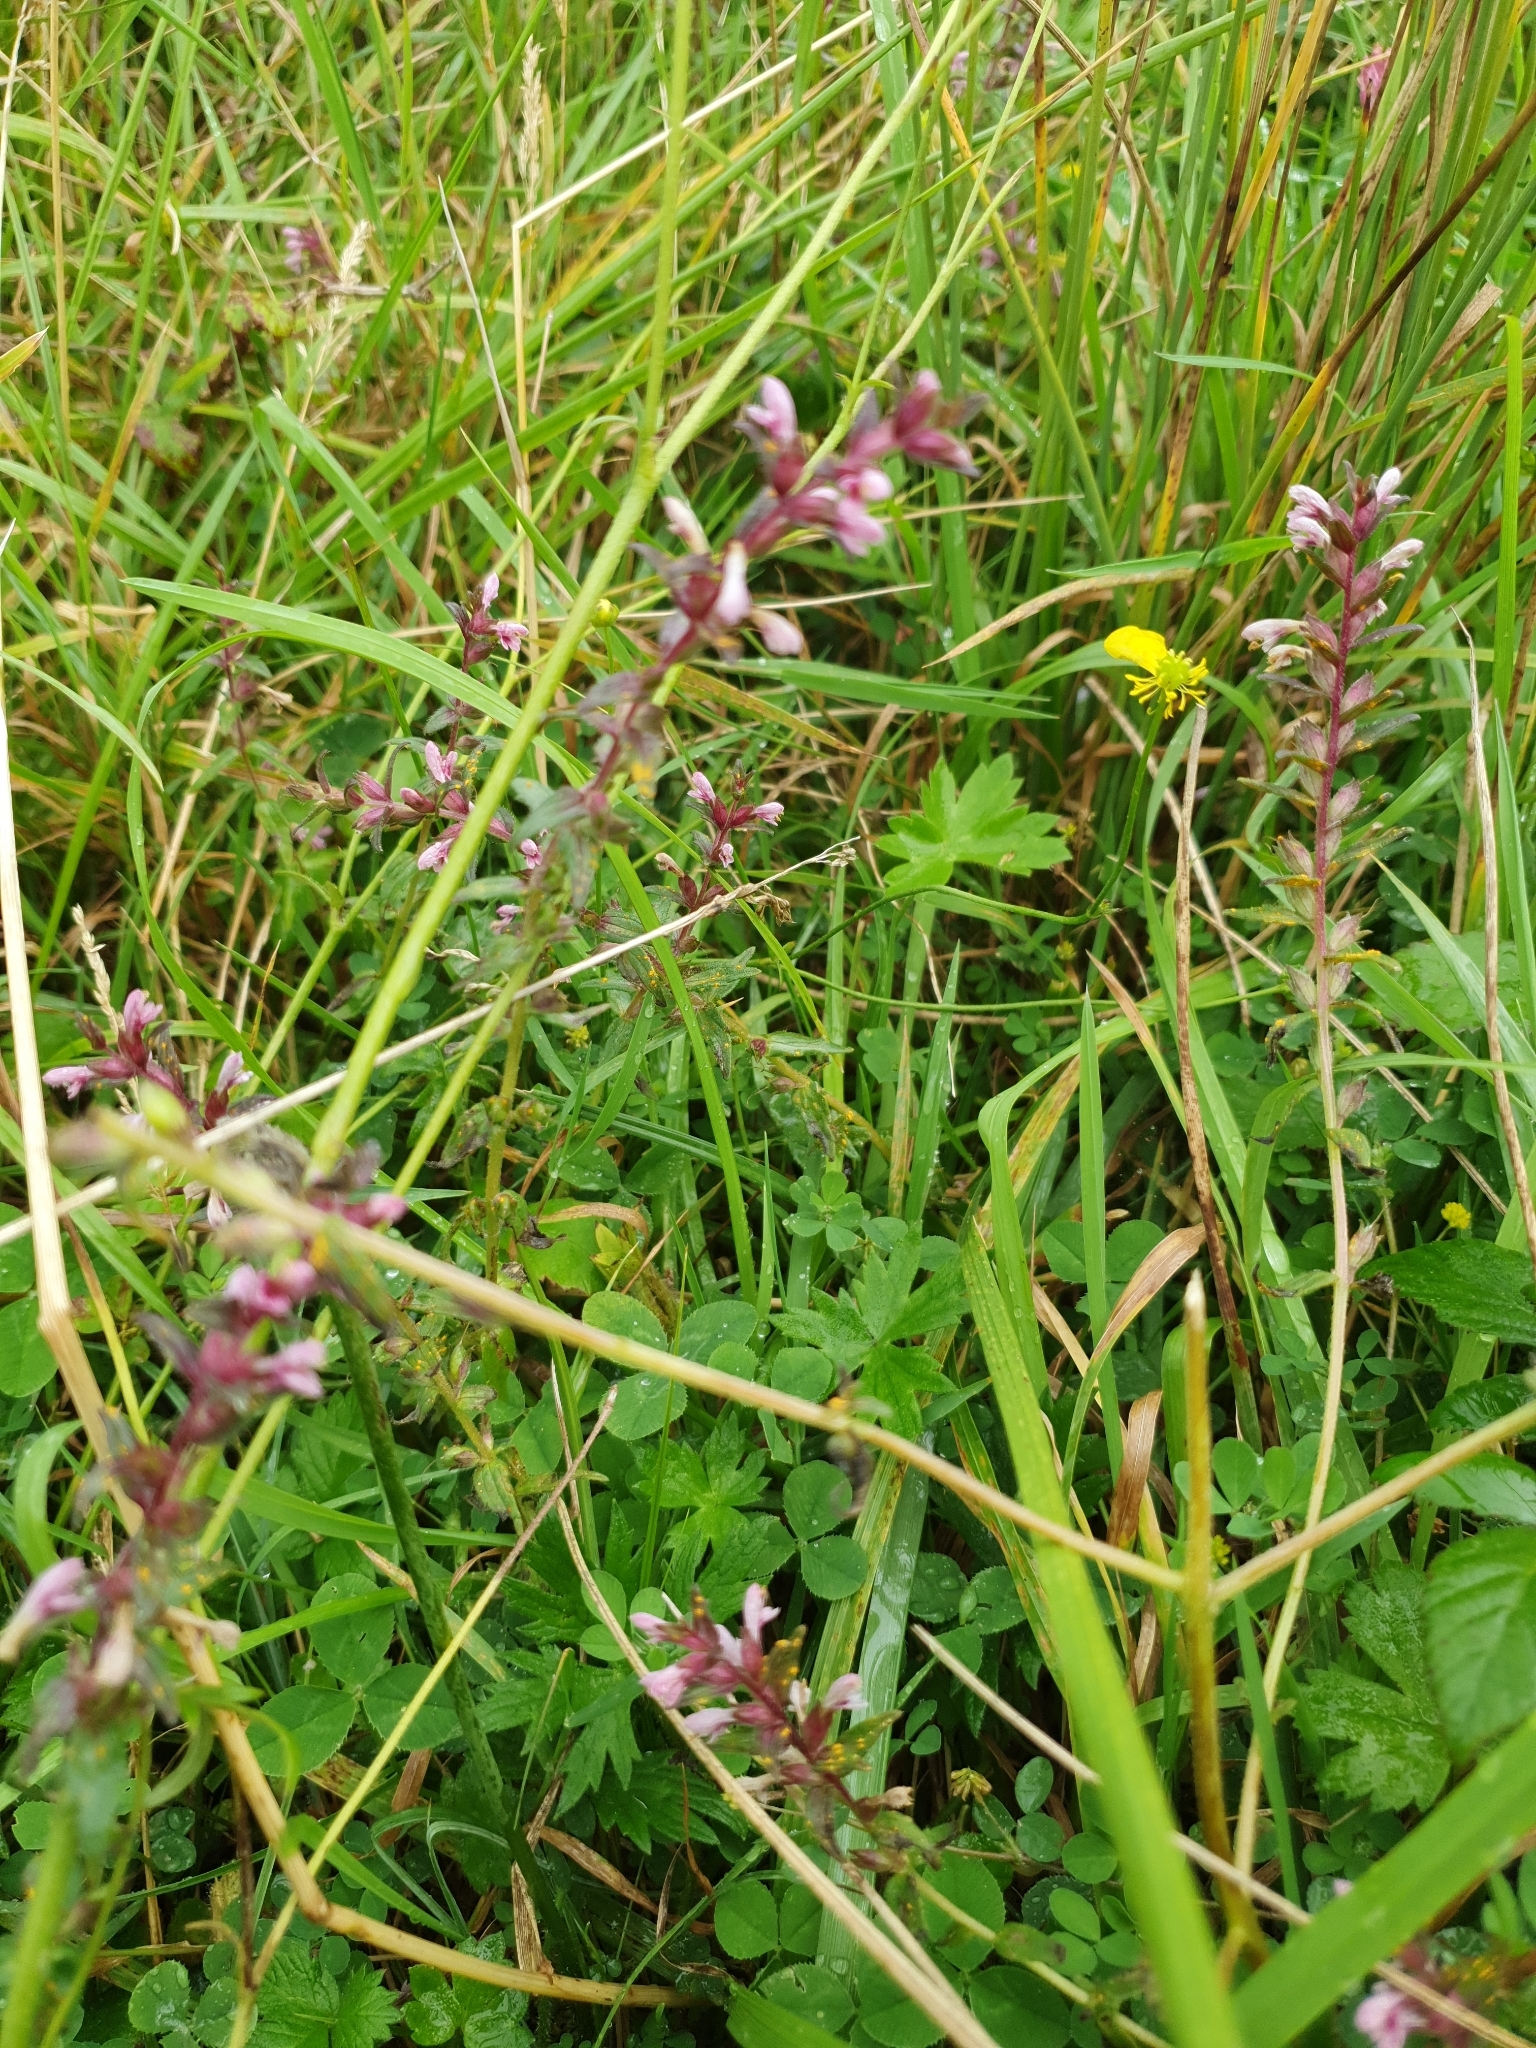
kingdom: Plantae
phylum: Tracheophyta
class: Magnoliopsida
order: Lamiales
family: Orobanchaceae
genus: Odontites
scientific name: Odontites vernus
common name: Red bartsia
